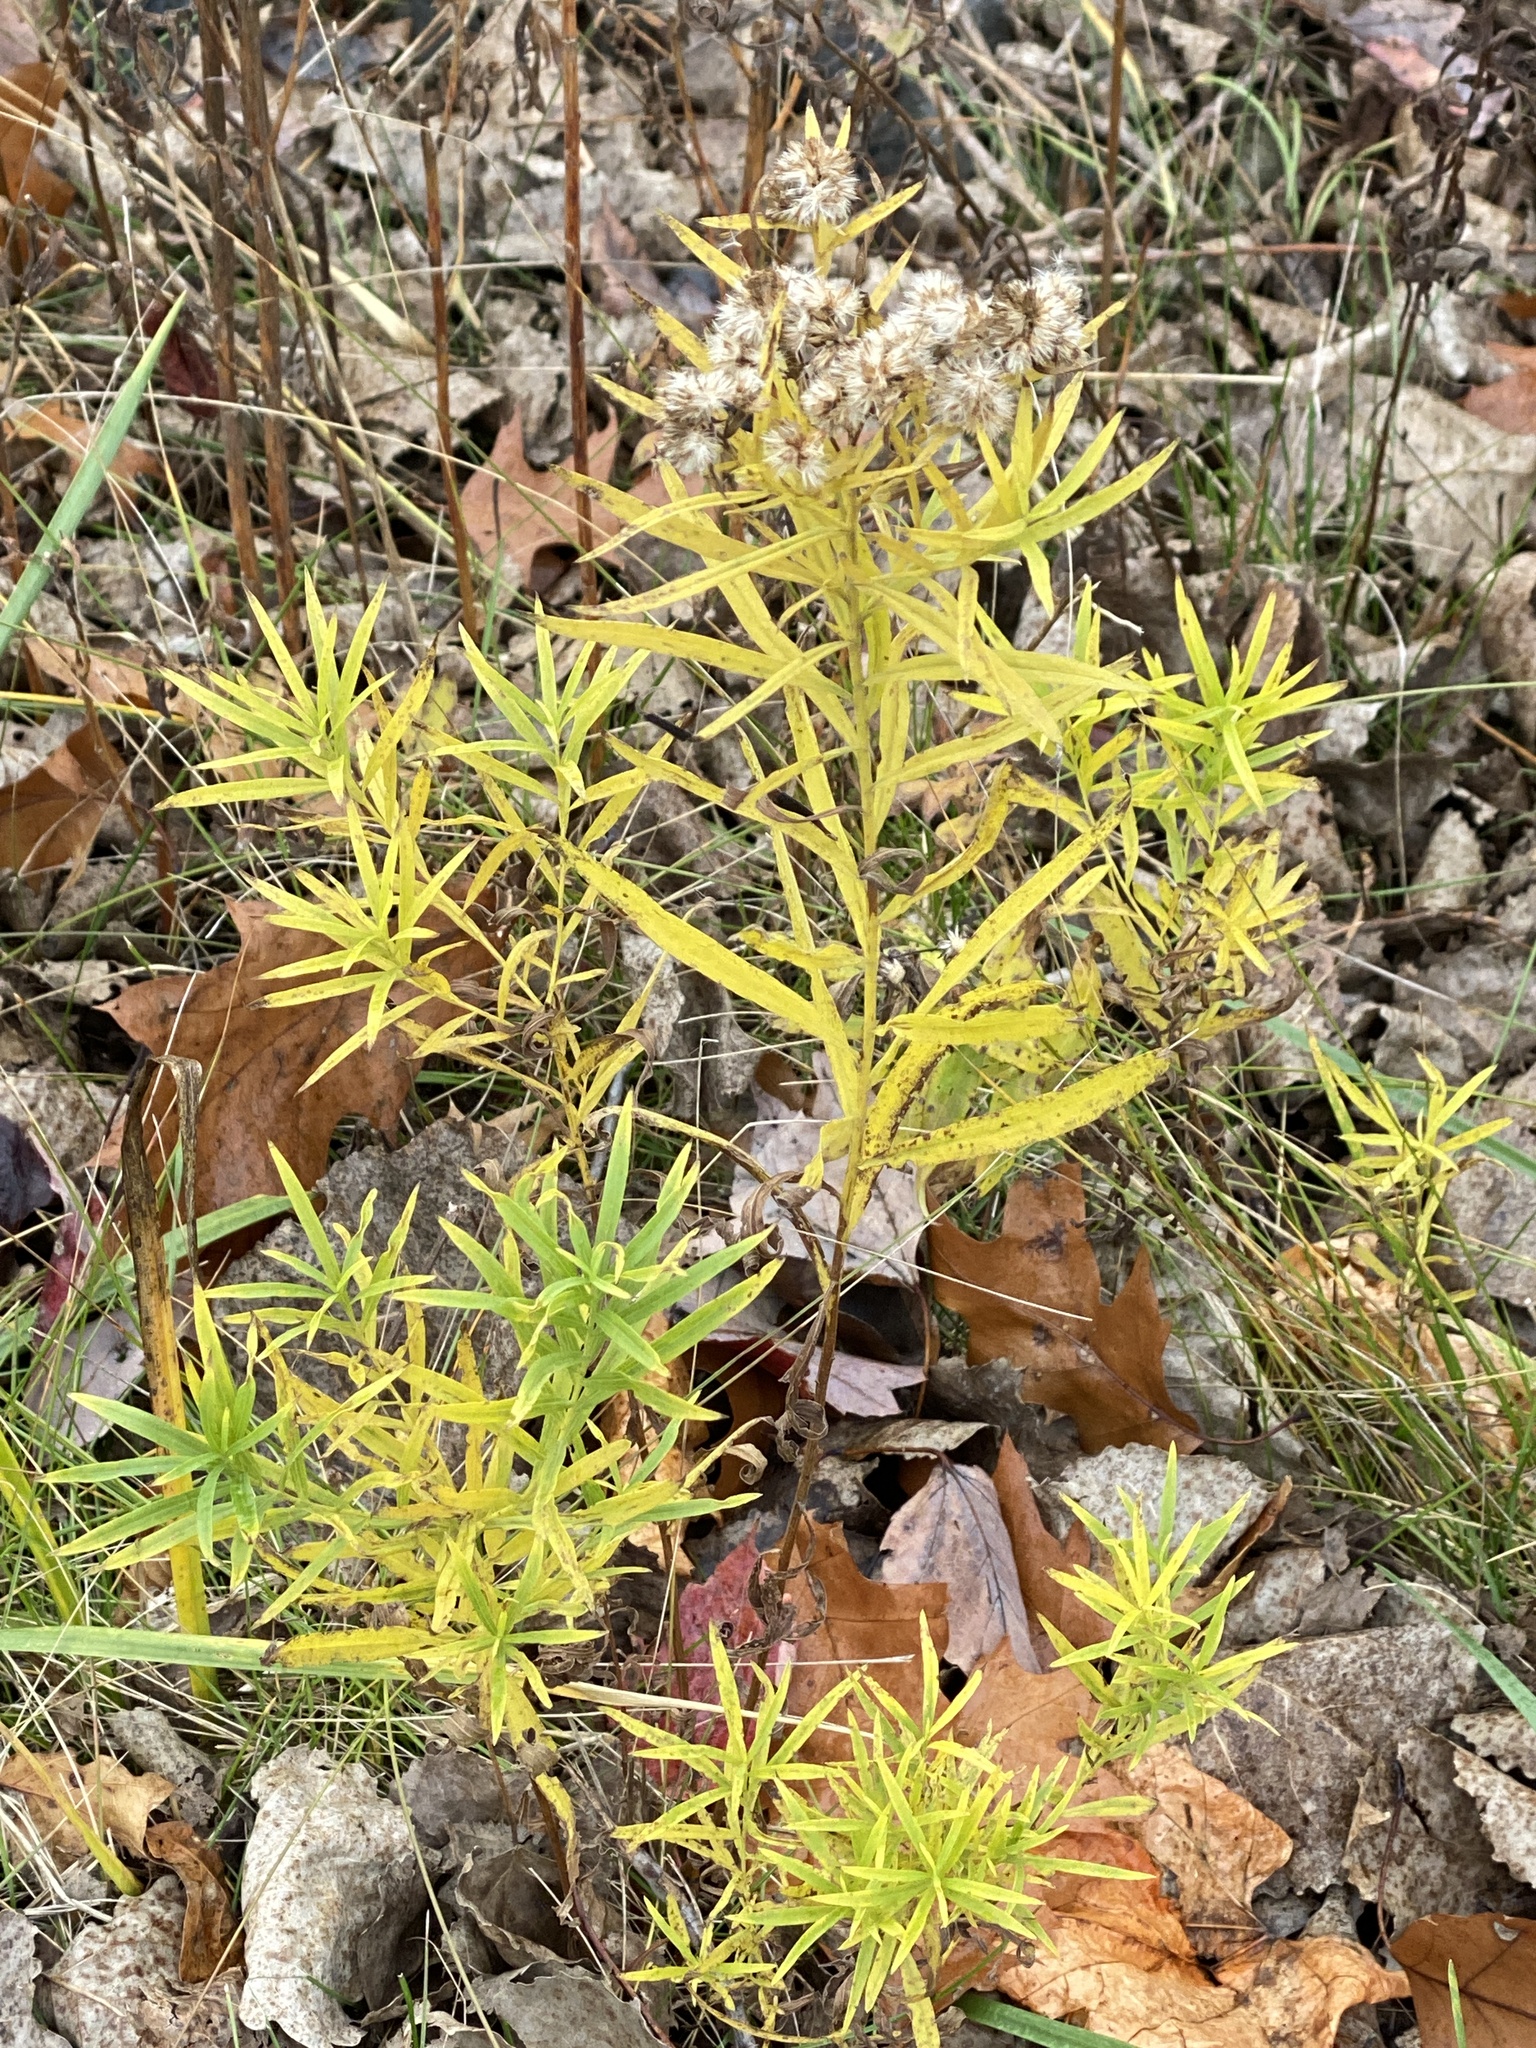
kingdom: Plantae
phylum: Tracheophyta
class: Magnoliopsida
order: Asterales
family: Asteraceae
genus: Euthamia
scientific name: Euthamia graminifolia
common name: Common goldentop
